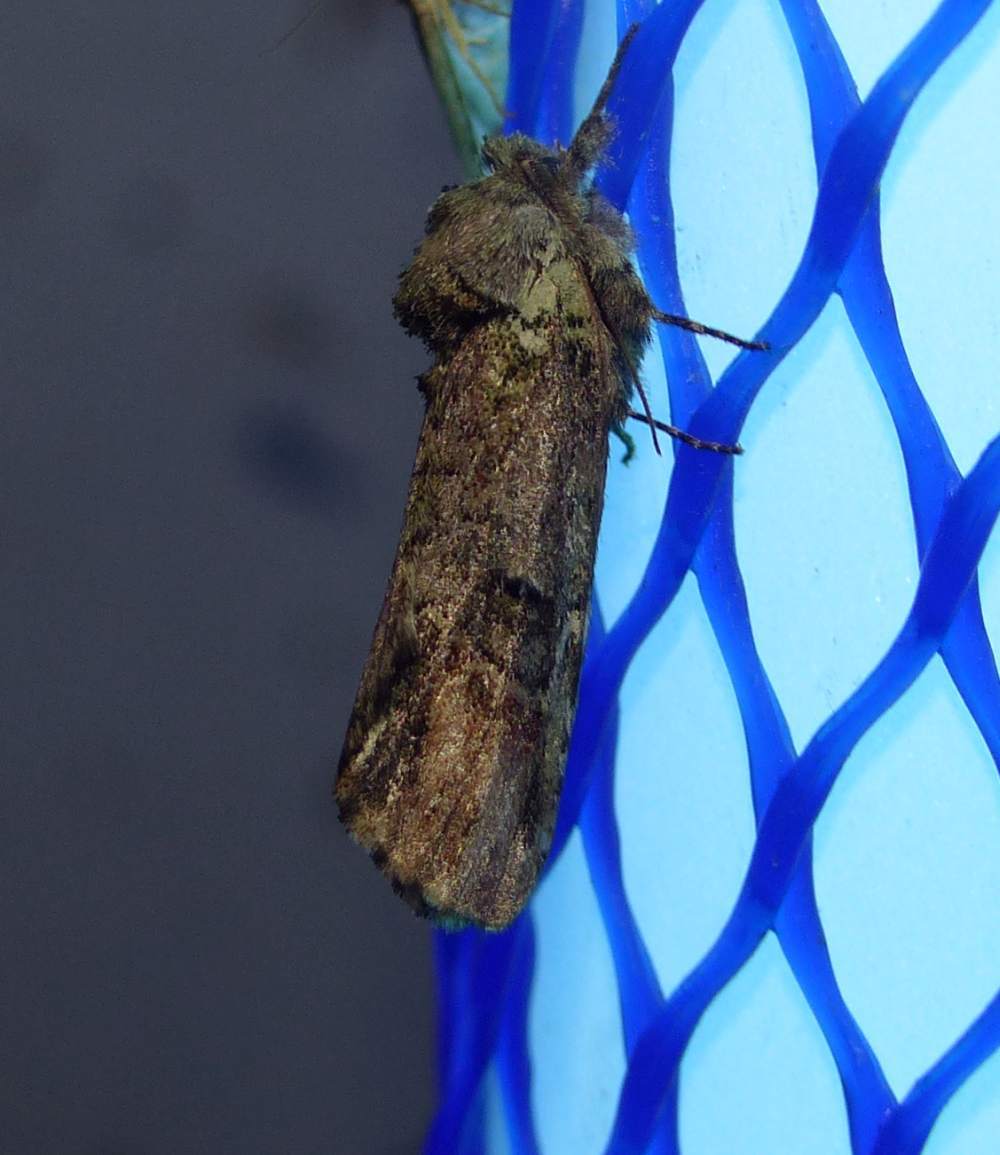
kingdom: Animalia
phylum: Arthropoda
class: Insecta
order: Lepidoptera
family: Notodontidae
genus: Schizura
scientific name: Schizura
